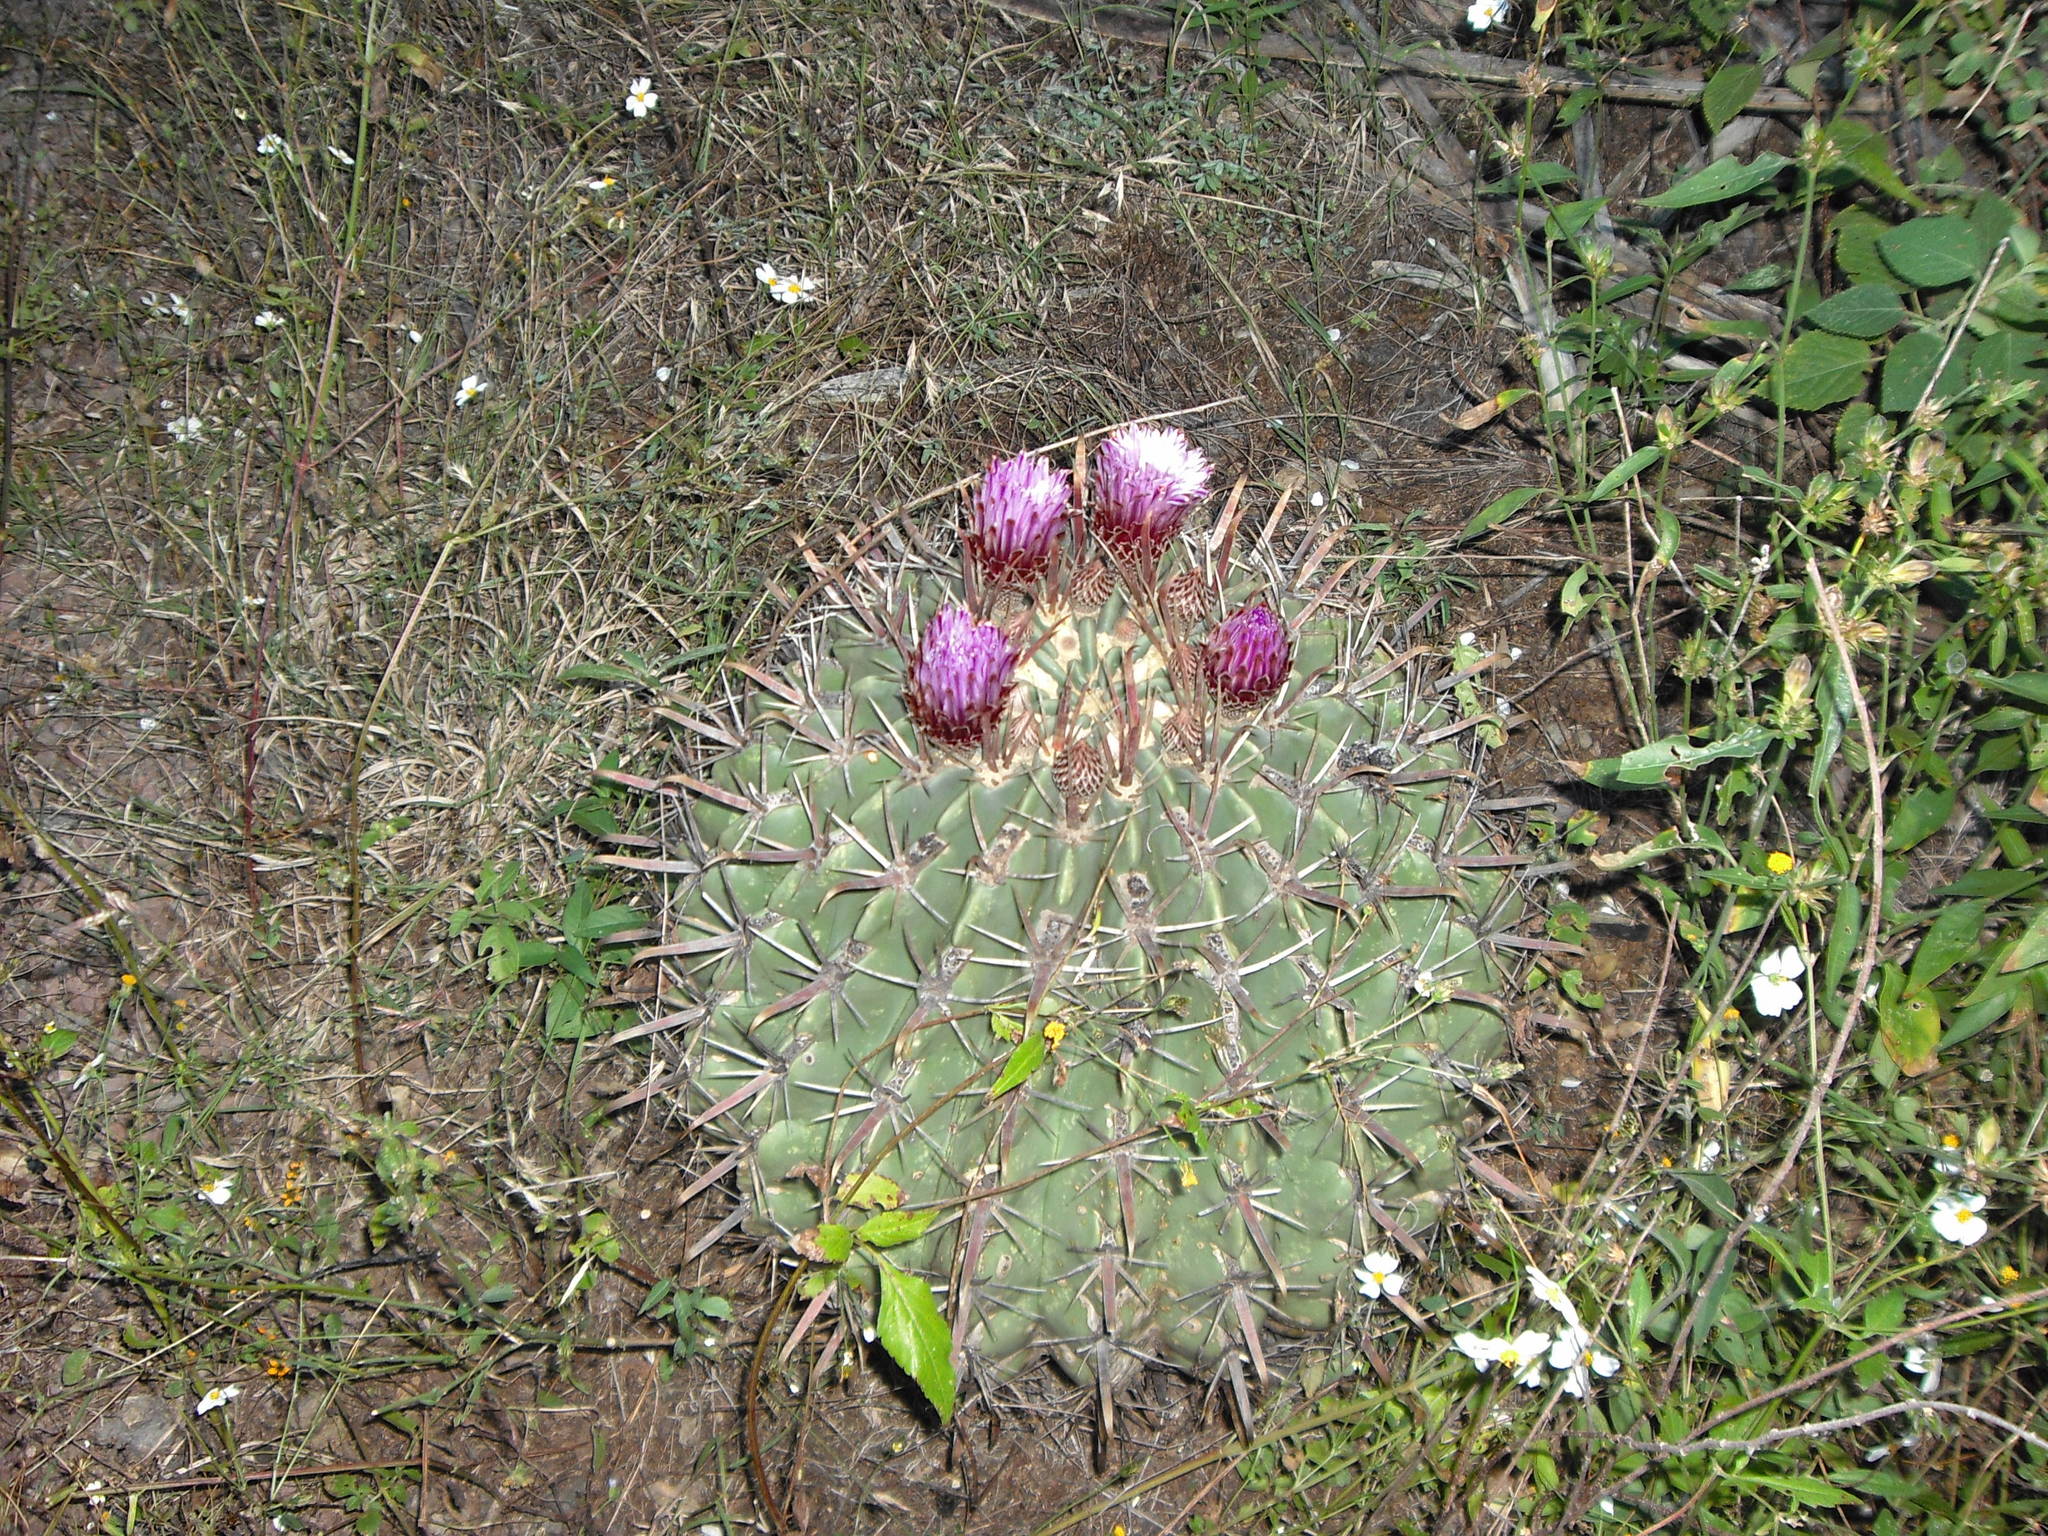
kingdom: Plantae
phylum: Tracheophyta
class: Magnoliopsida
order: Caryophyllales
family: Cactaceae
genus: Ferocactus
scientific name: Ferocactus latispinus
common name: Devil's-tongue cactus
